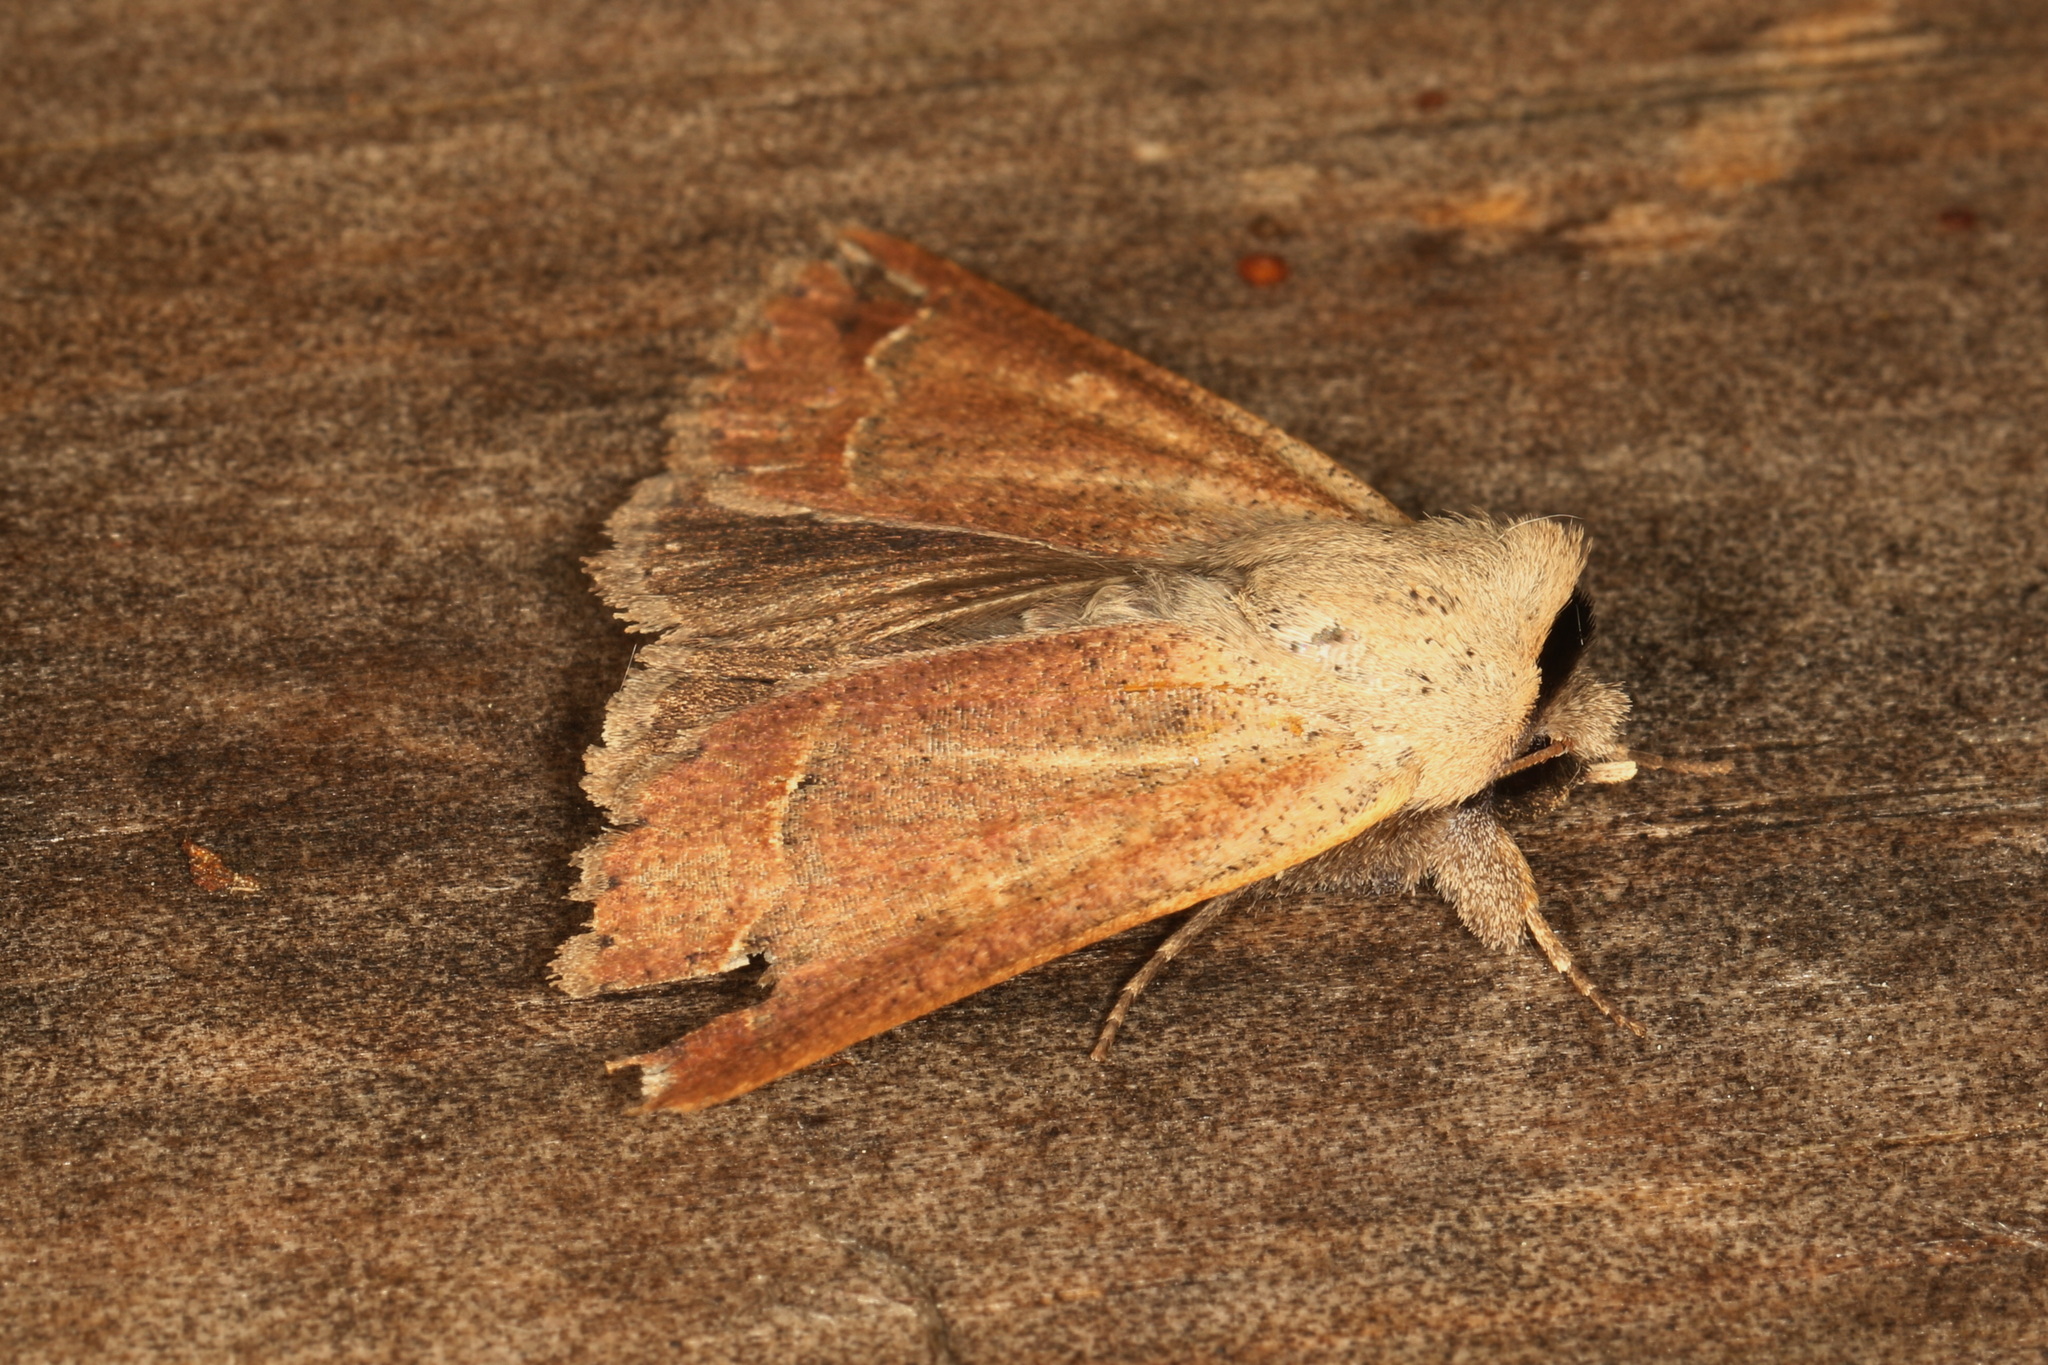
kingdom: Animalia
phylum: Arthropoda
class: Insecta
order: Lepidoptera
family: Erebidae
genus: Pantydia
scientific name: Pantydia diemeni
